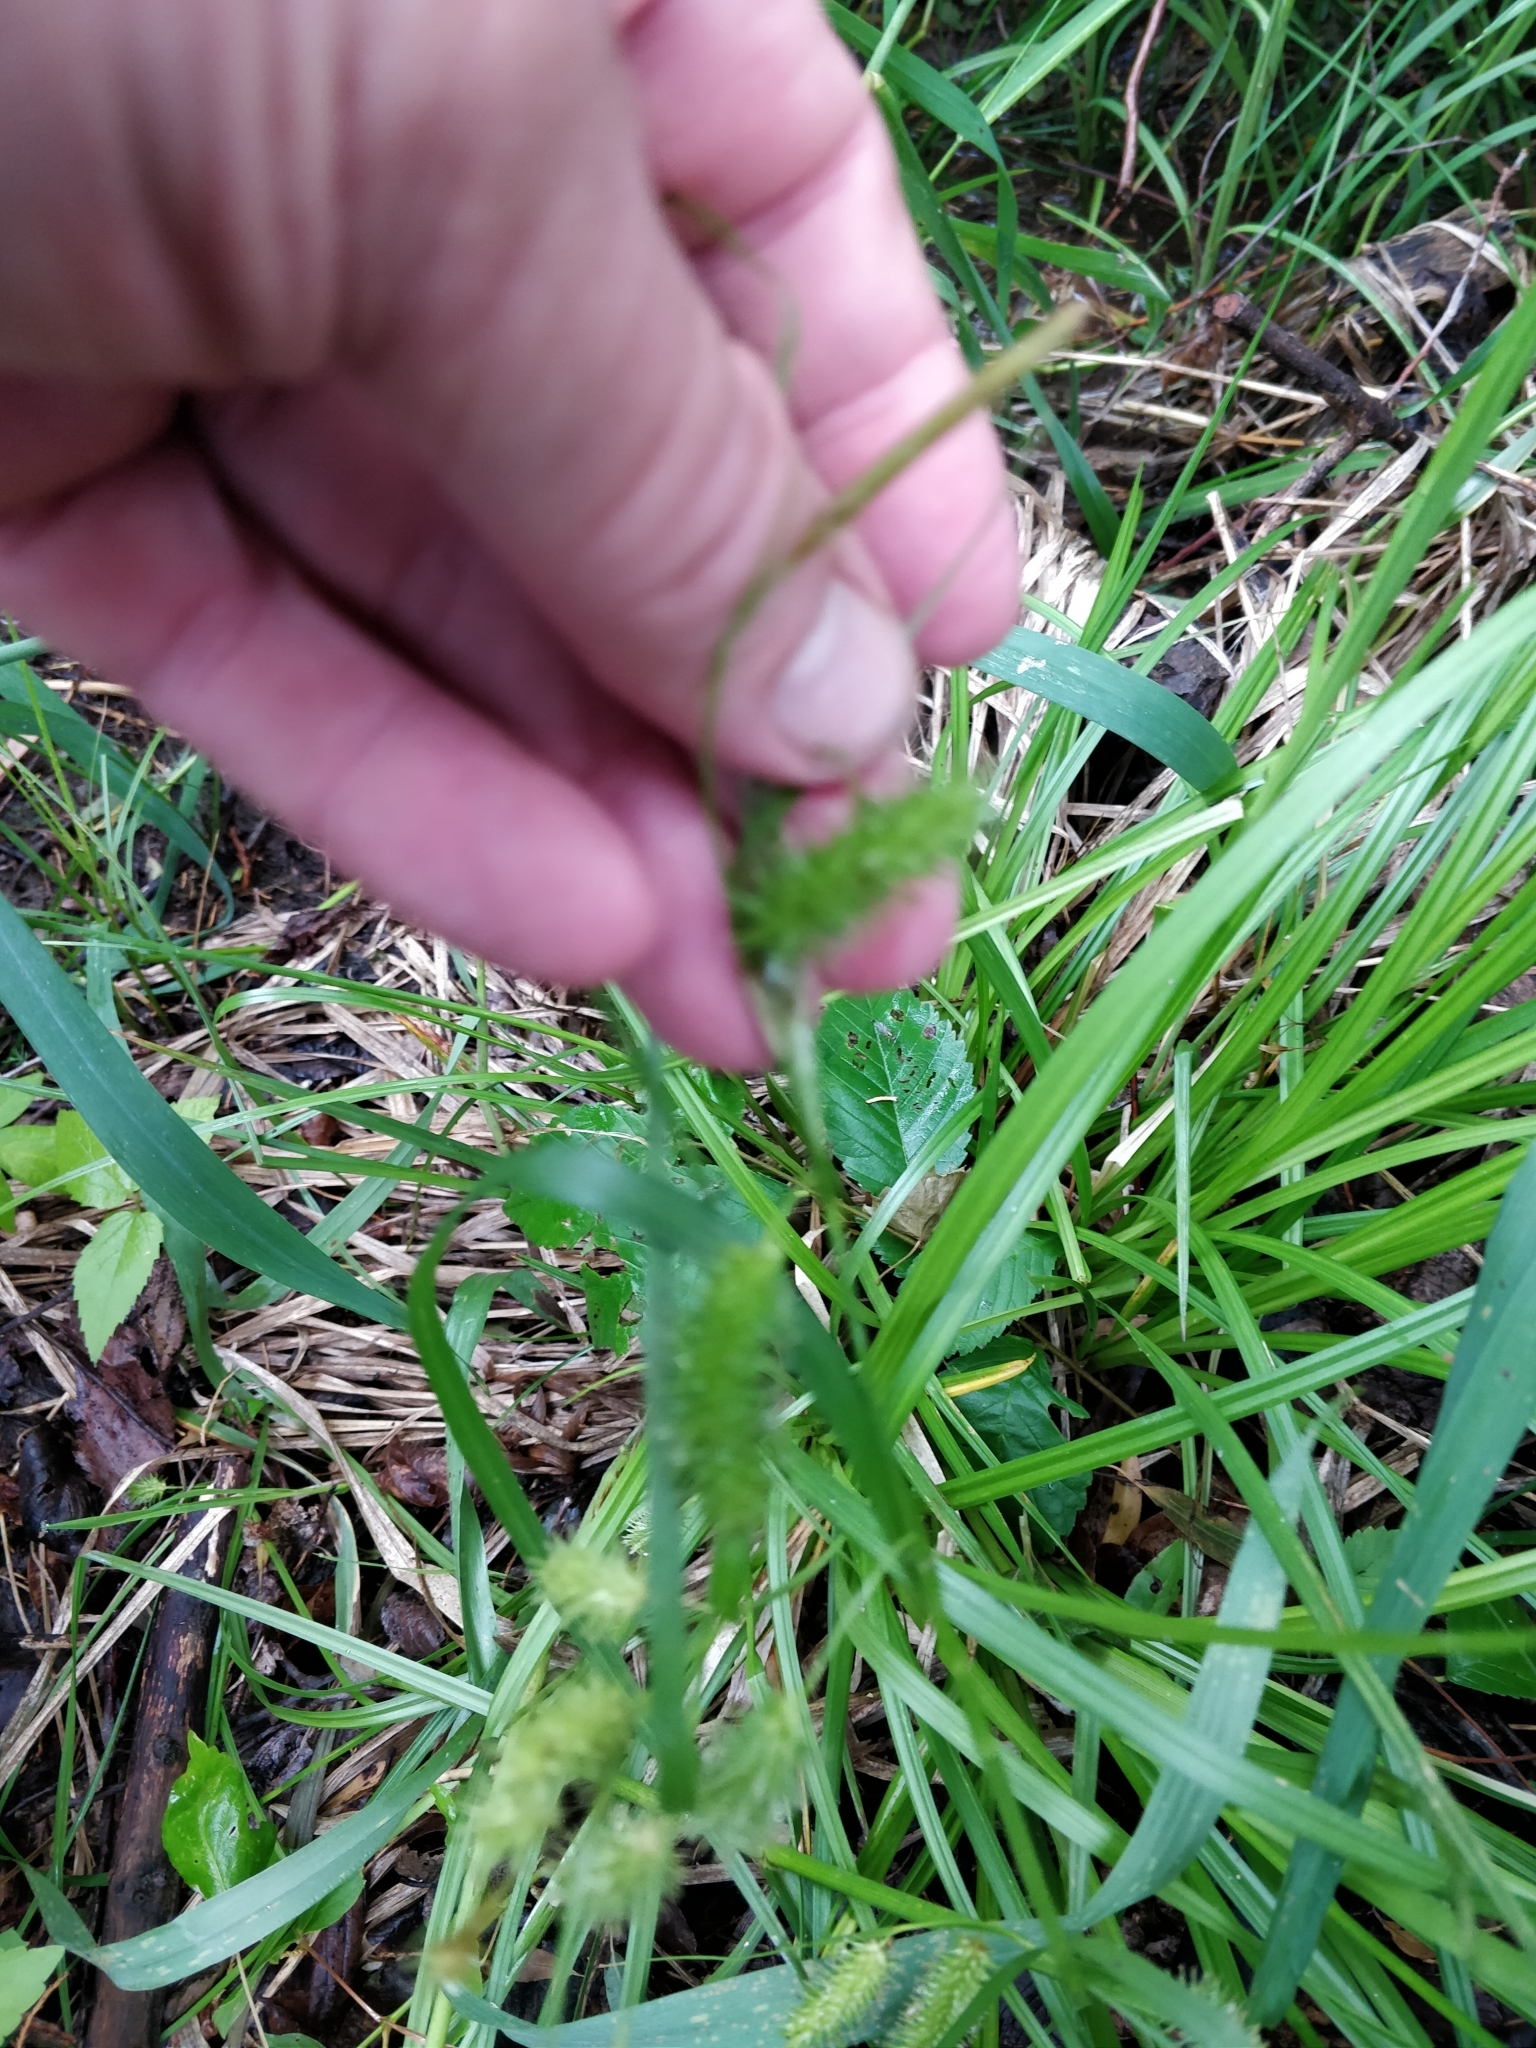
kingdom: Plantae
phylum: Tracheophyta
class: Liliopsida
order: Poales
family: Cyperaceae
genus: Carex
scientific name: Carex hystericina
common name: Bottlebrush sedge
